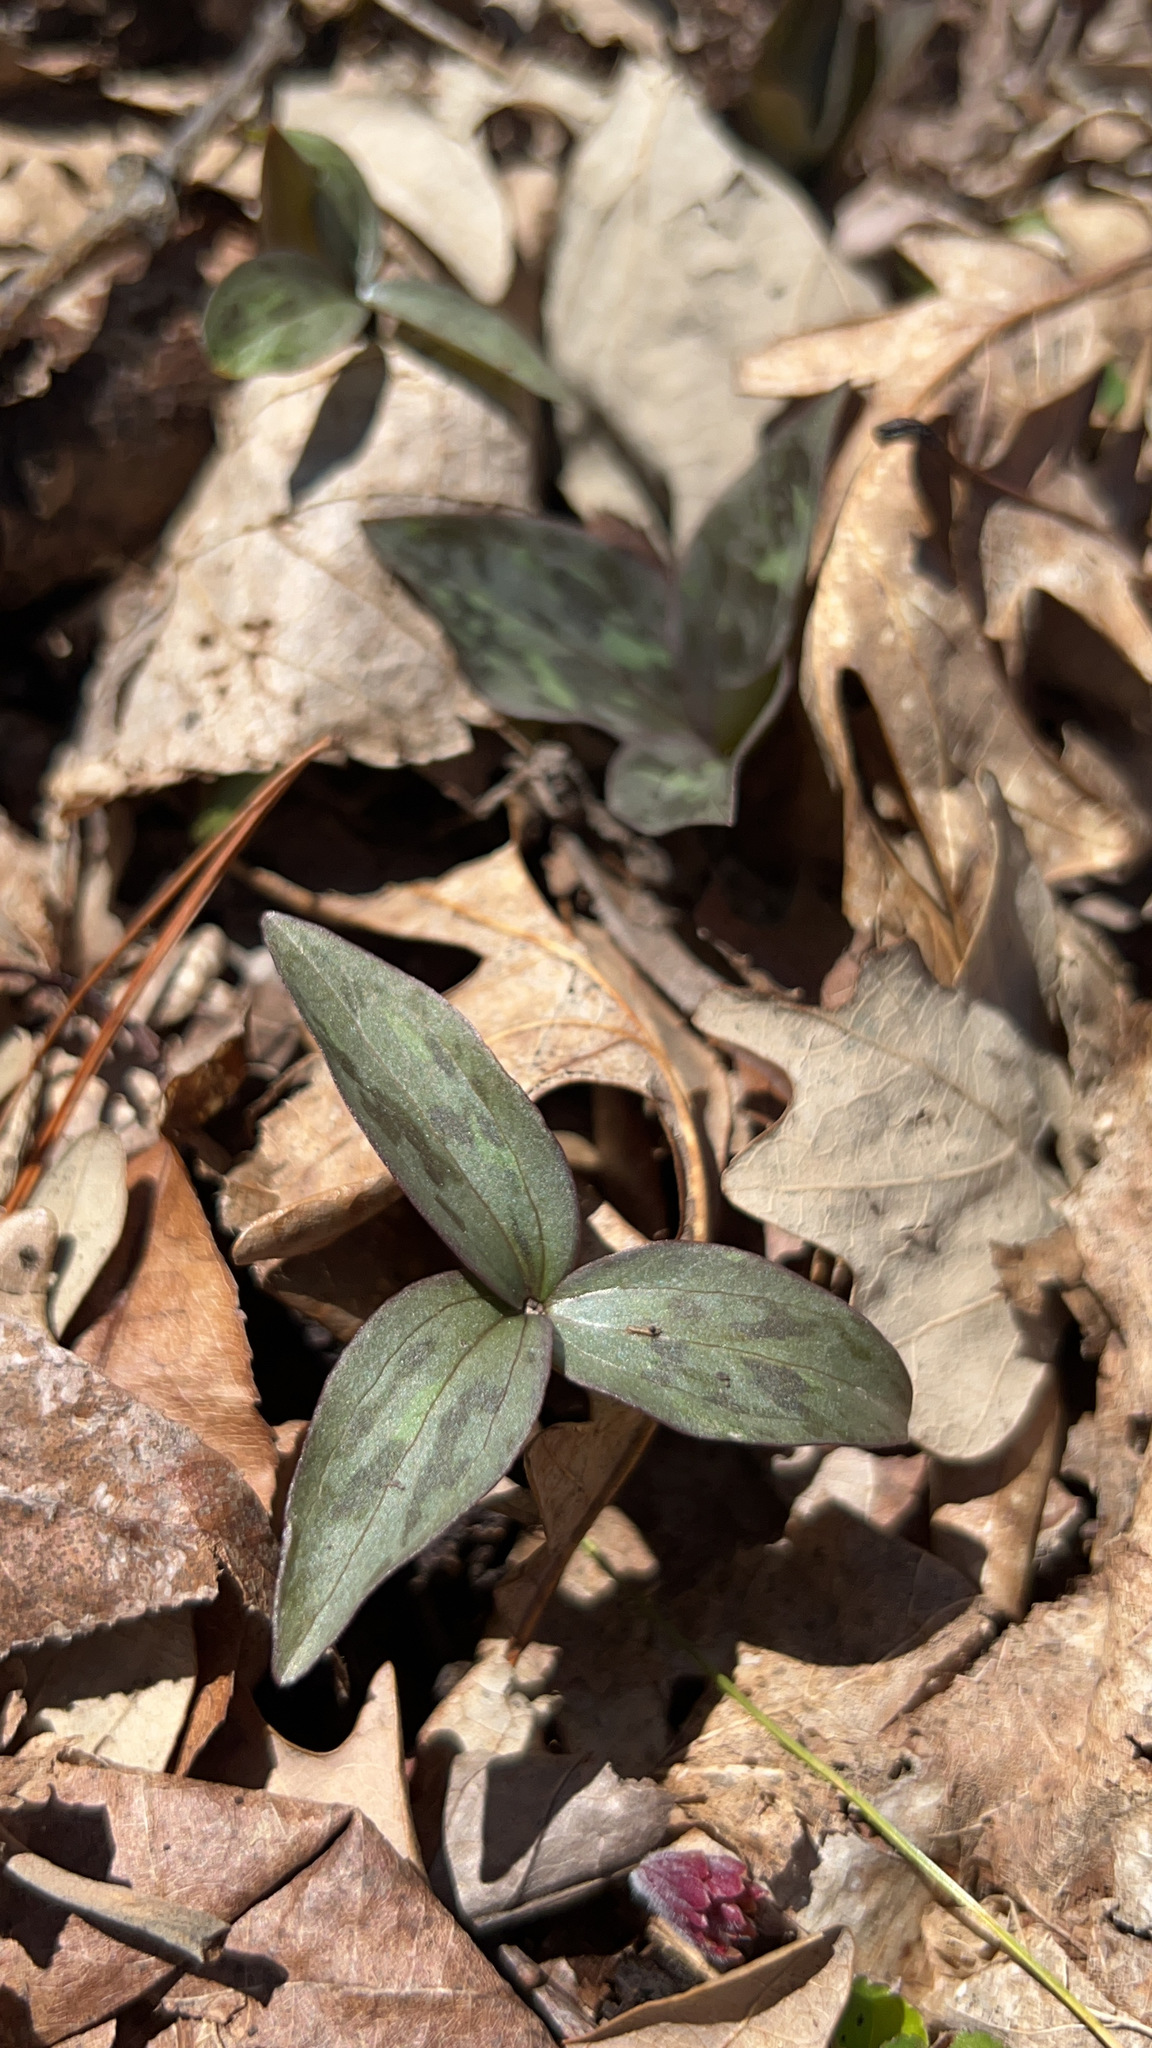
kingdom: Plantae
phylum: Tracheophyta
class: Liliopsida
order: Liliales
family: Melanthiaceae
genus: Trillium
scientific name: Trillium recurvatum
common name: Bloody butcher
